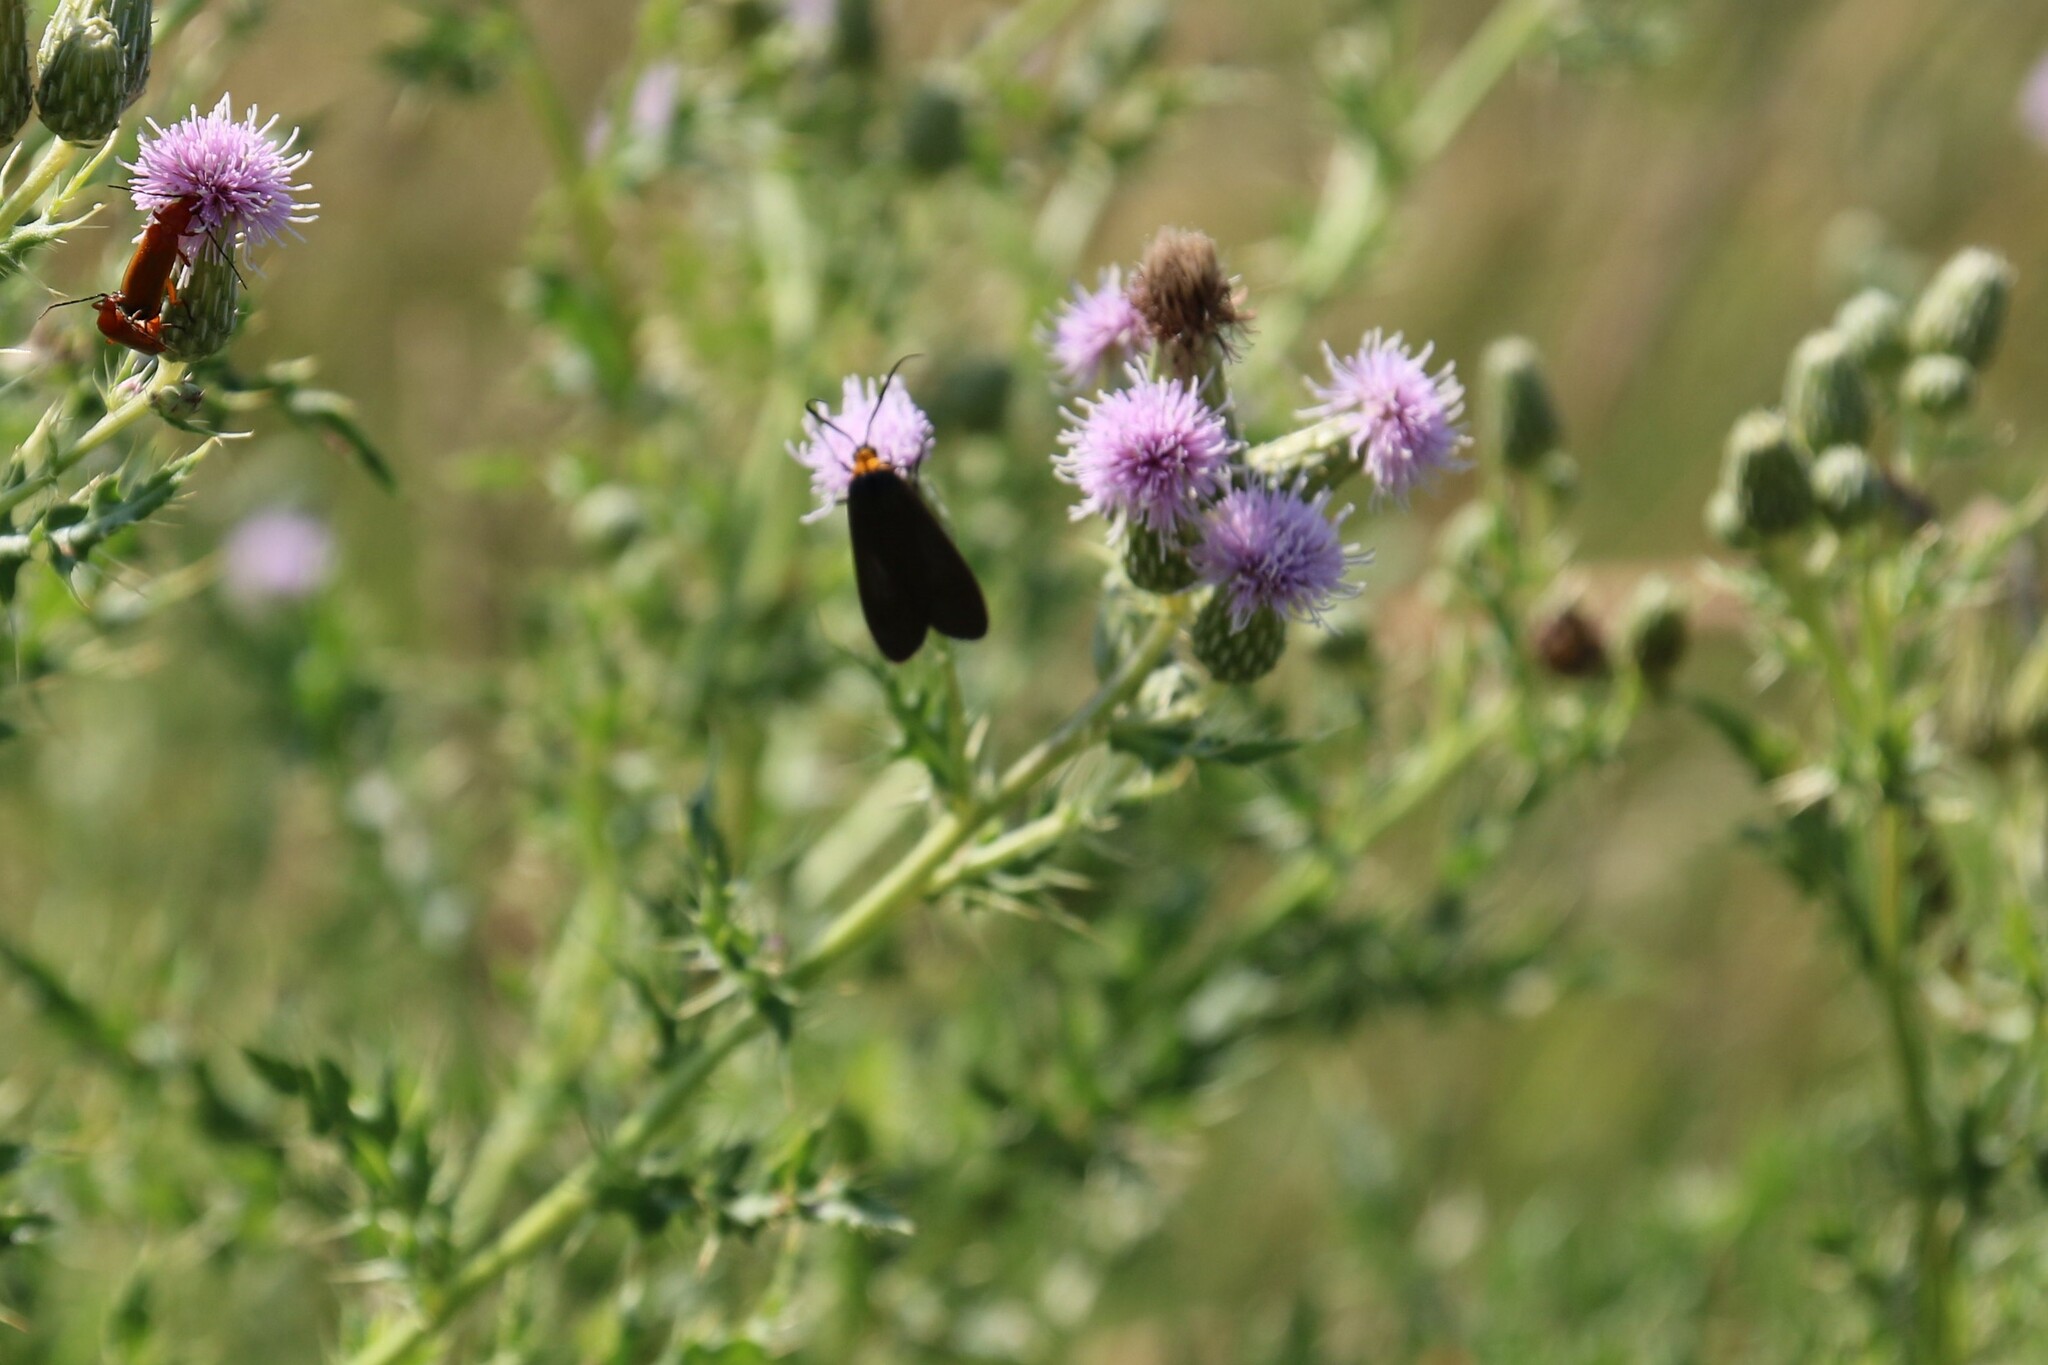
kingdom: Animalia
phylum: Arthropoda
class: Insecta
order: Lepidoptera
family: Erebidae
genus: Cisseps
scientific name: Cisseps fulvicollis
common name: Yellow-collared scape moth
